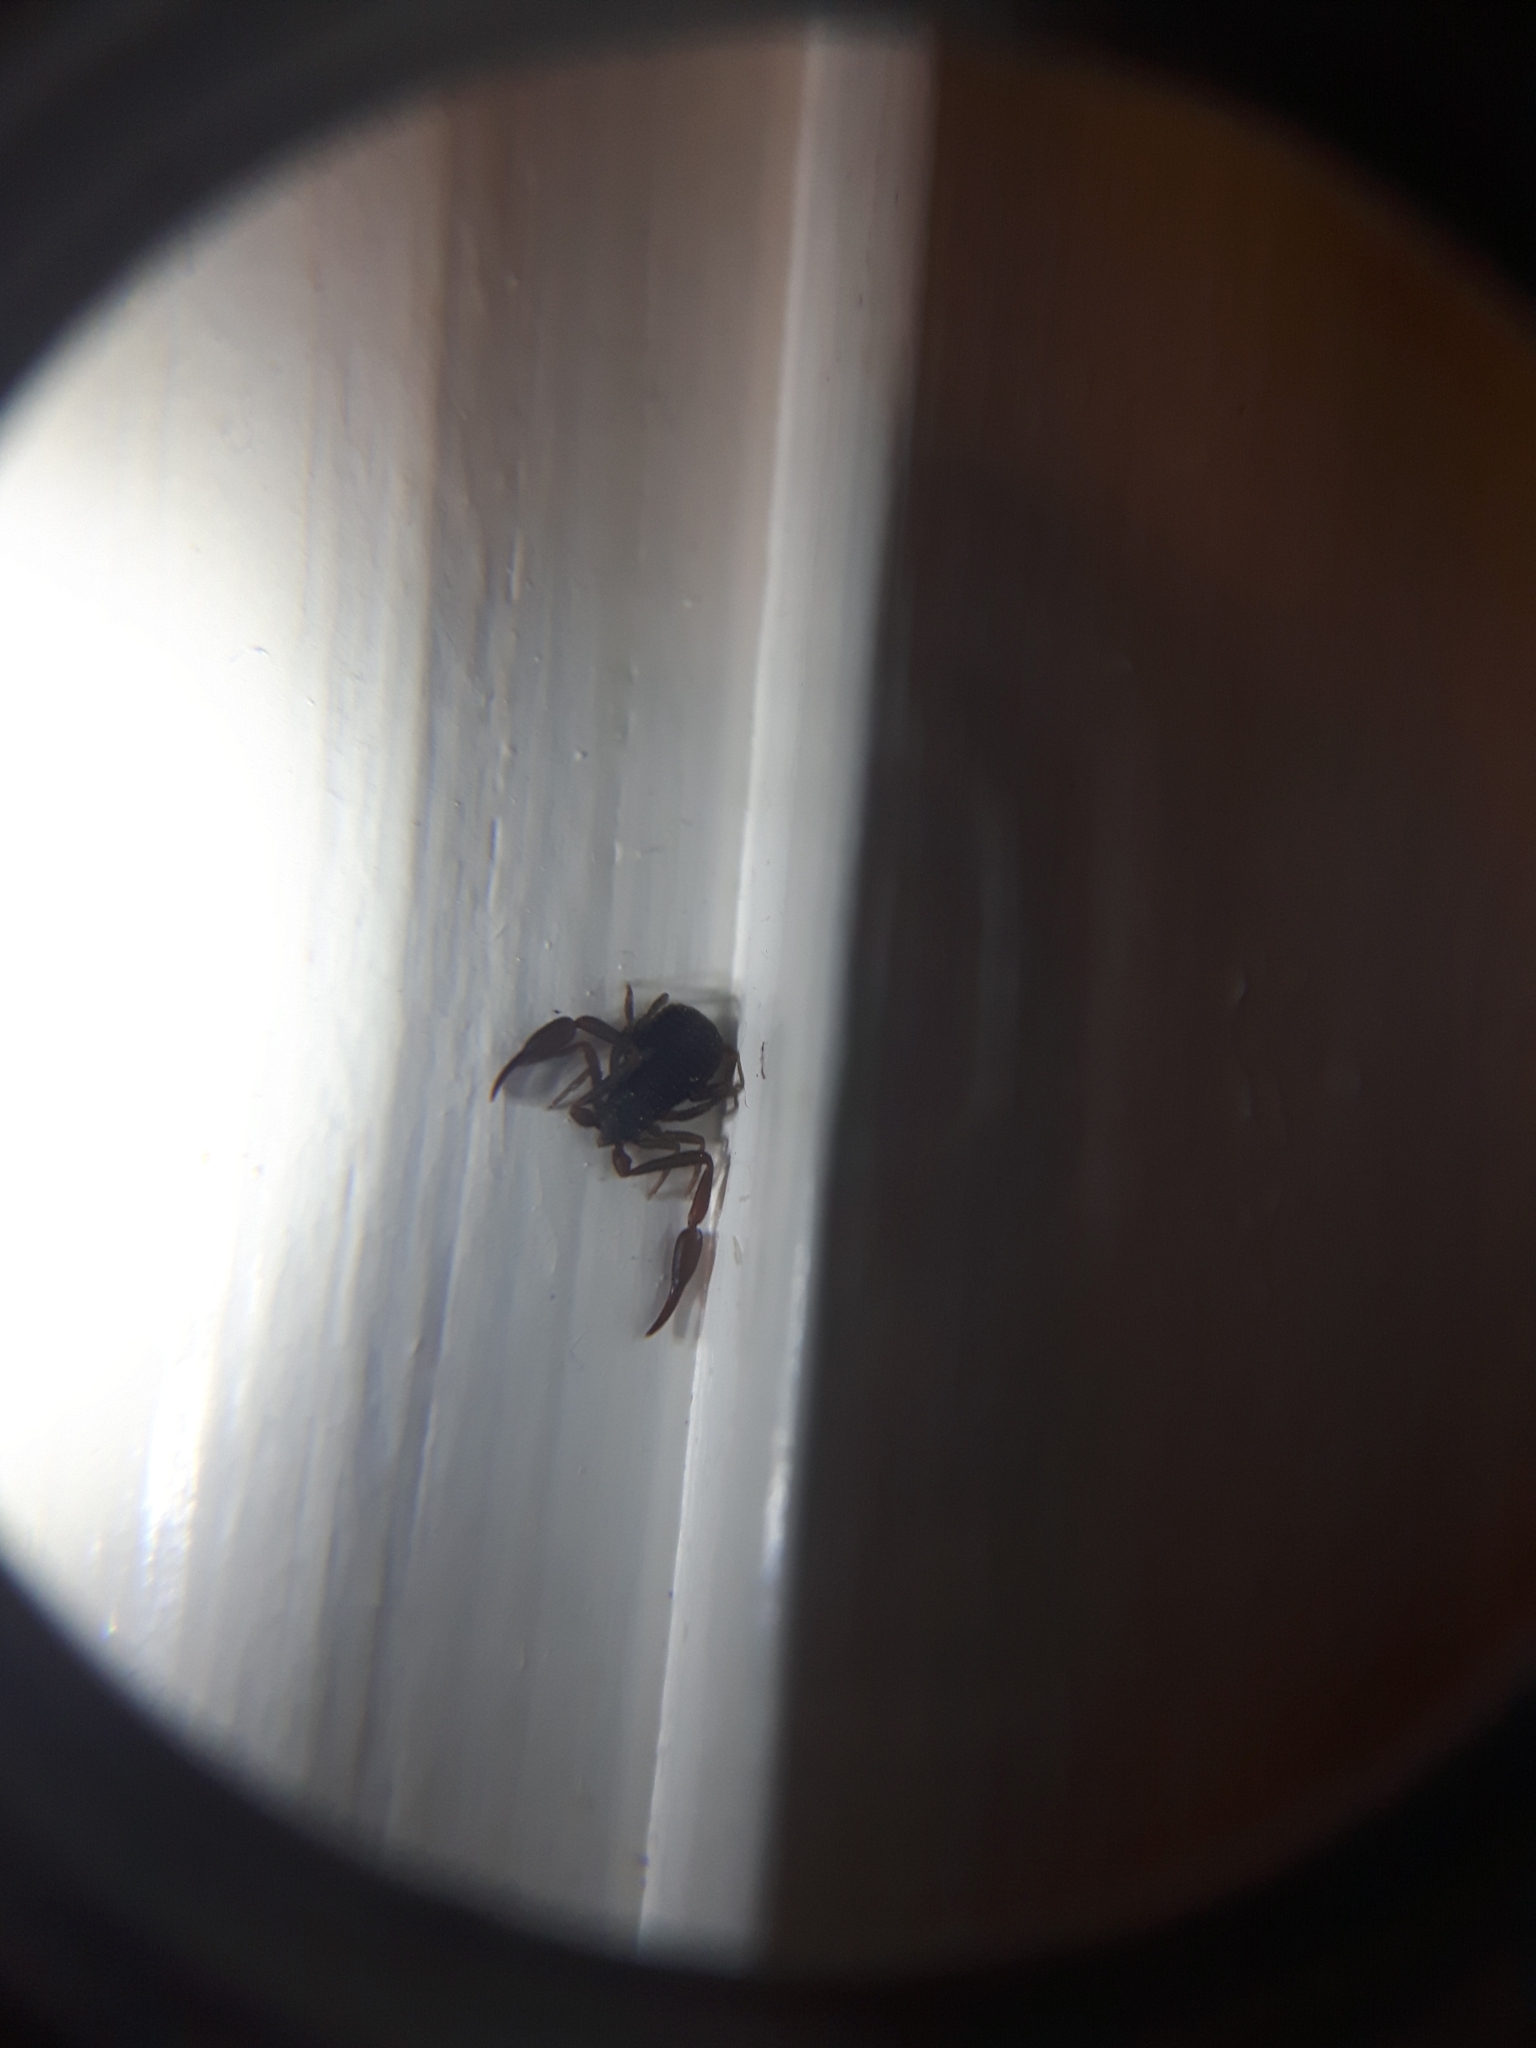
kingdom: Animalia
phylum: Arthropoda
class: Arachnida
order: Pseudoscorpiones
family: Cheliferidae
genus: Chelifer
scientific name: Chelifer cancroides
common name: House false-scorpion
